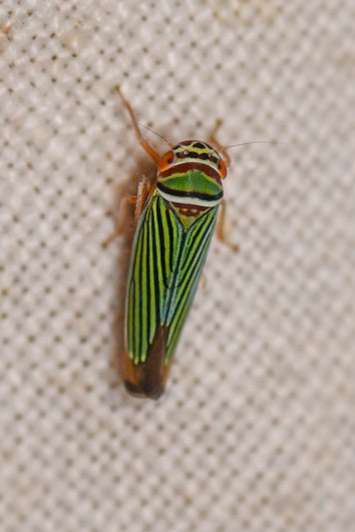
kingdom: Animalia
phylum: Arthropoda
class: Insecta
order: Hemiptera
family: Cicadellidae
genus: Tylozygus
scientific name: Tylozygus fuscolineellus
